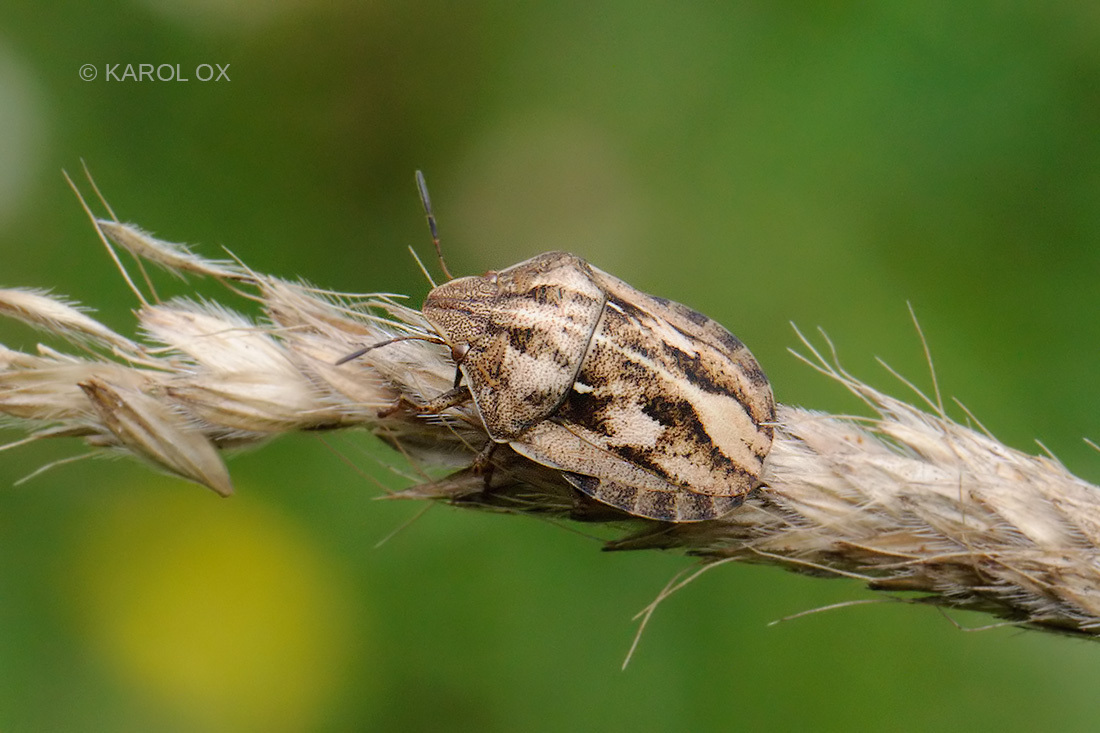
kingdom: Animalia
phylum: Arthropoda
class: Insecta
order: Hemiptera
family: Scutelleridae
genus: Eurygaster
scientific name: Eurygaster testudinaria
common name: Tortoise bug
